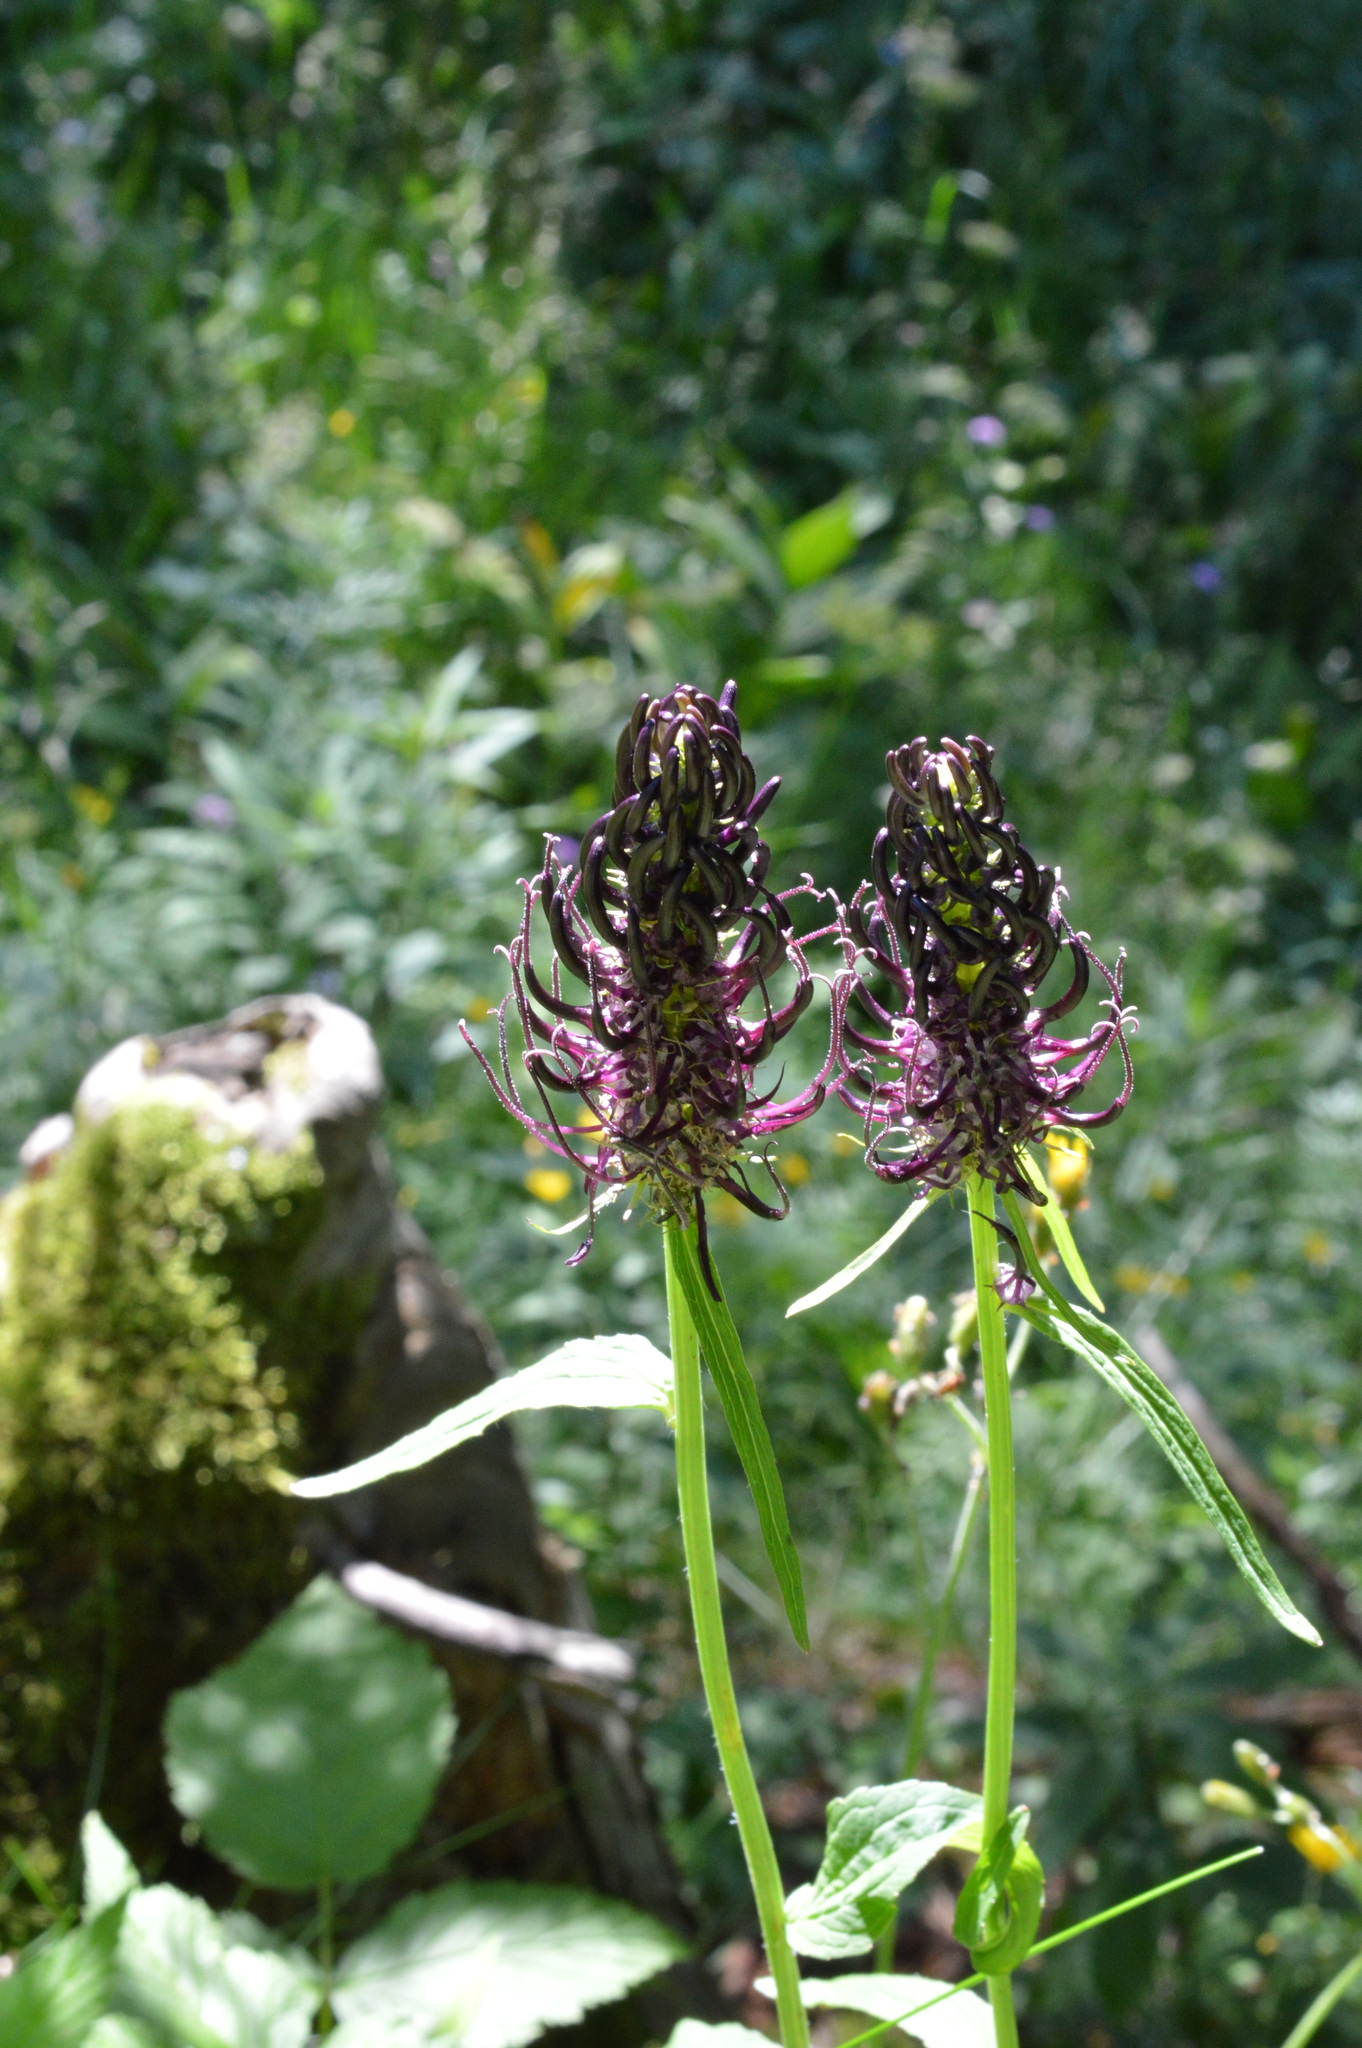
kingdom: Plantae
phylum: Tracheophyta
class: Magnoliopsida
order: Asterales
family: Campanulaceae
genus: Phyteuma
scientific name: Phyteuma ovatum
